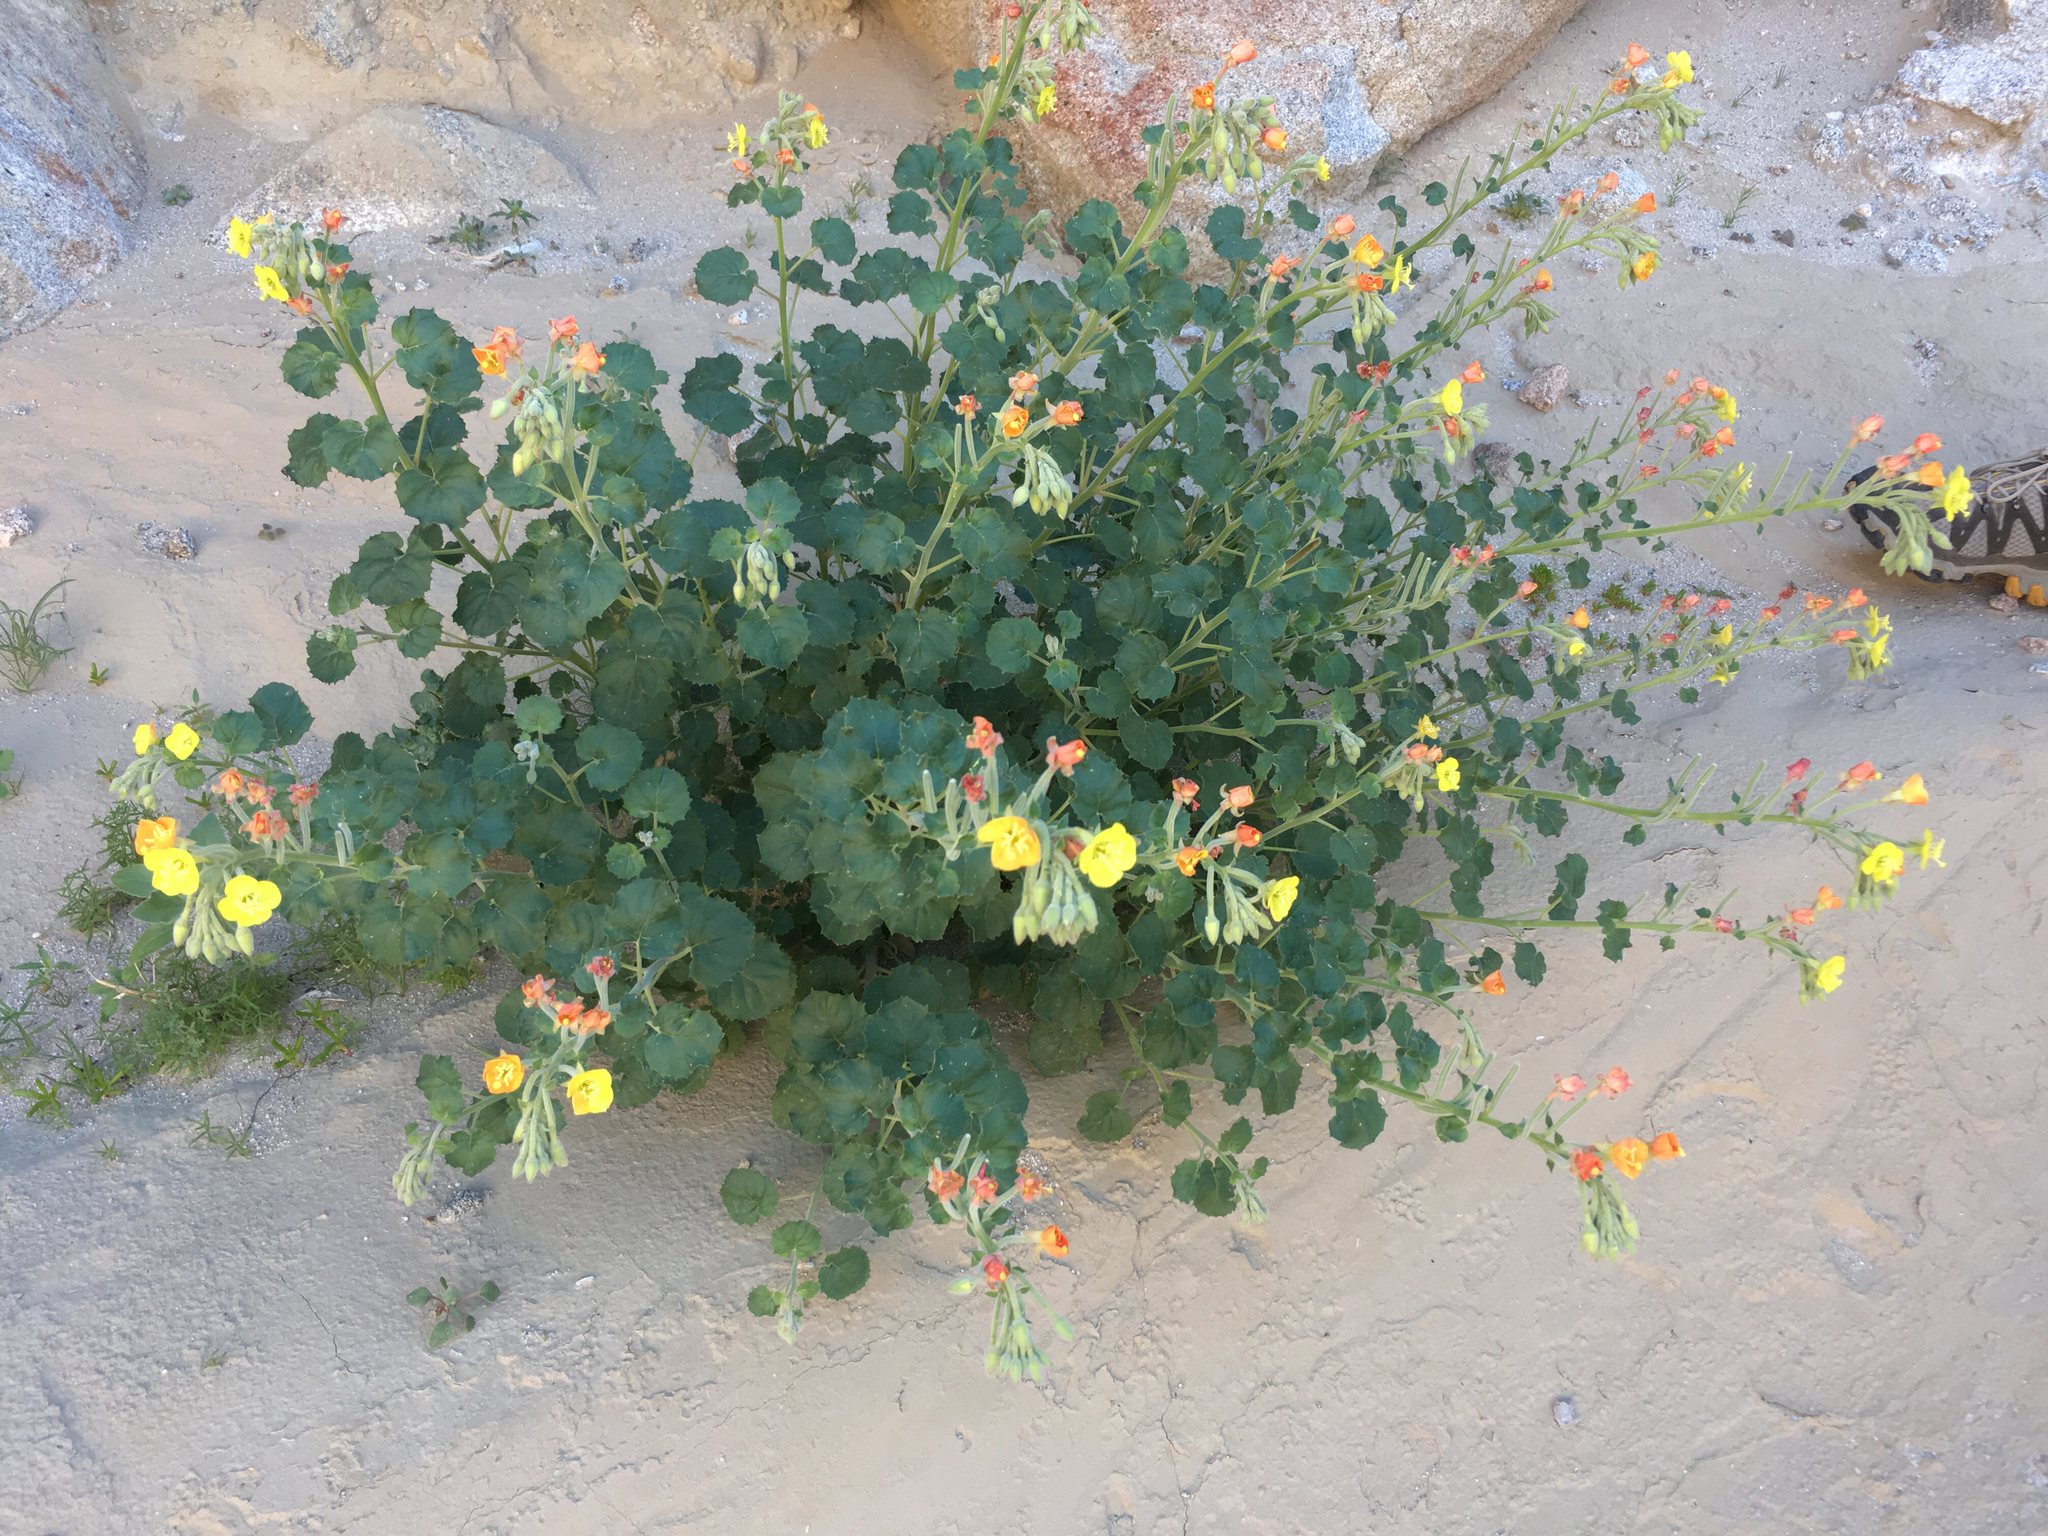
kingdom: Plantae
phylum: Tracheophyta
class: Magnoliopsida
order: Myrtales
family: Onagraceae
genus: Chylismia
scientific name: Chylismia cardiophylla
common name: Heartleaf suncup
